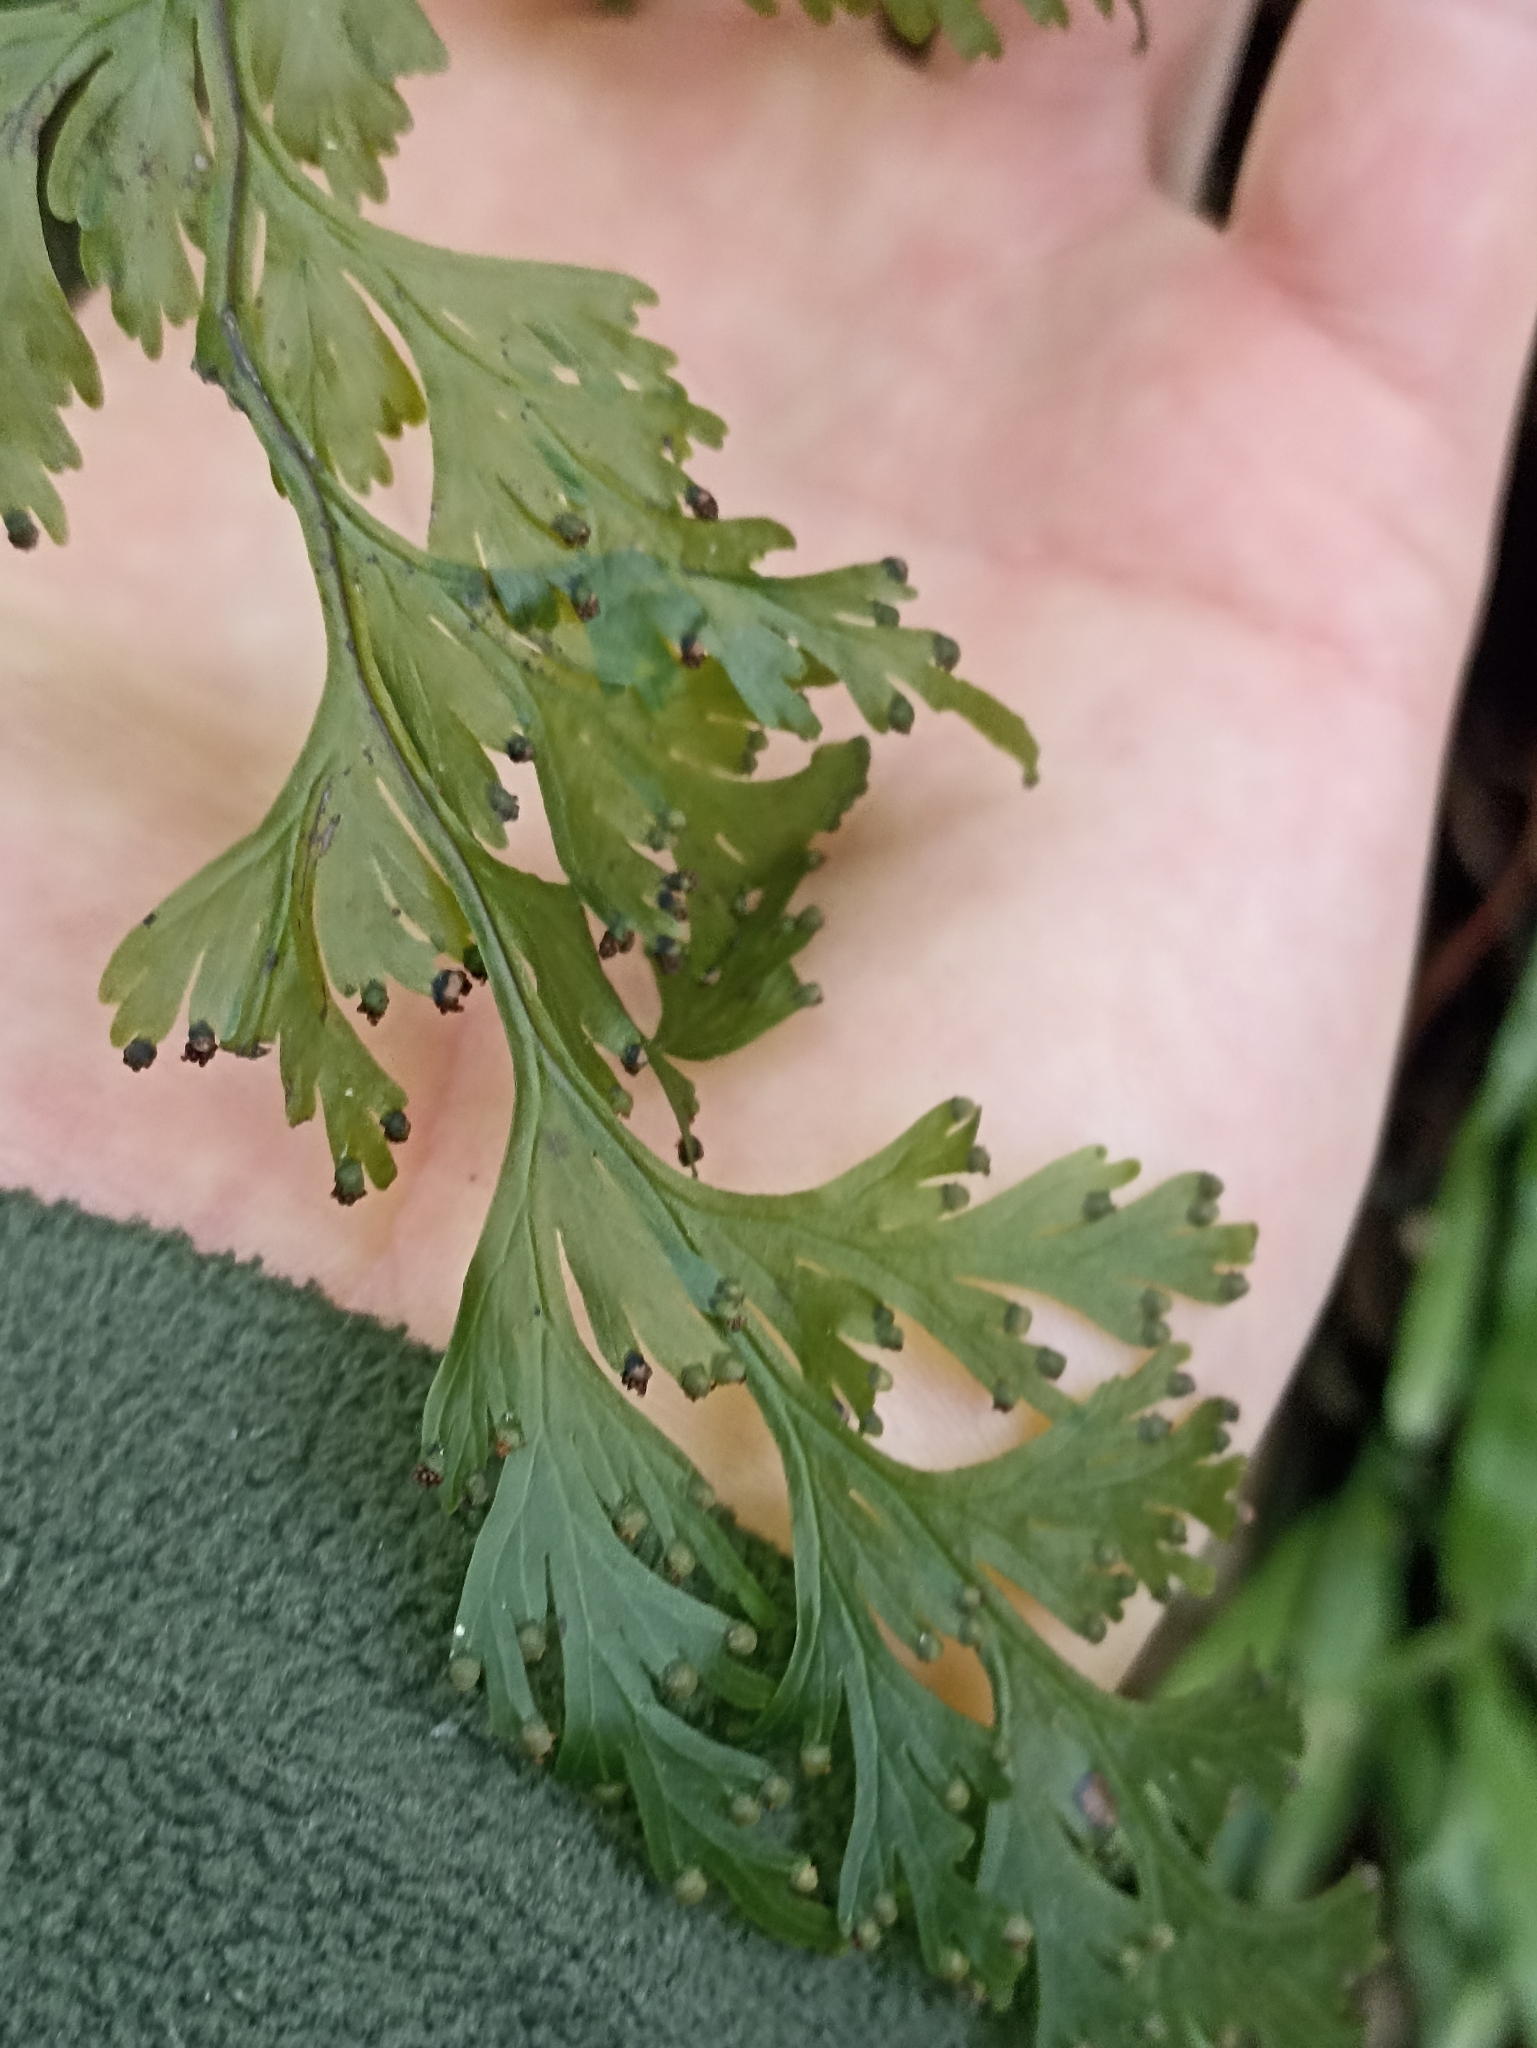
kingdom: Plantae
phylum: Tracheophyta
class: Polypodiopsida
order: Hymenophyllales
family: Hymenophyllaceae
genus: Hymenophyllum
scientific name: Hymenophyllum dilatatum
